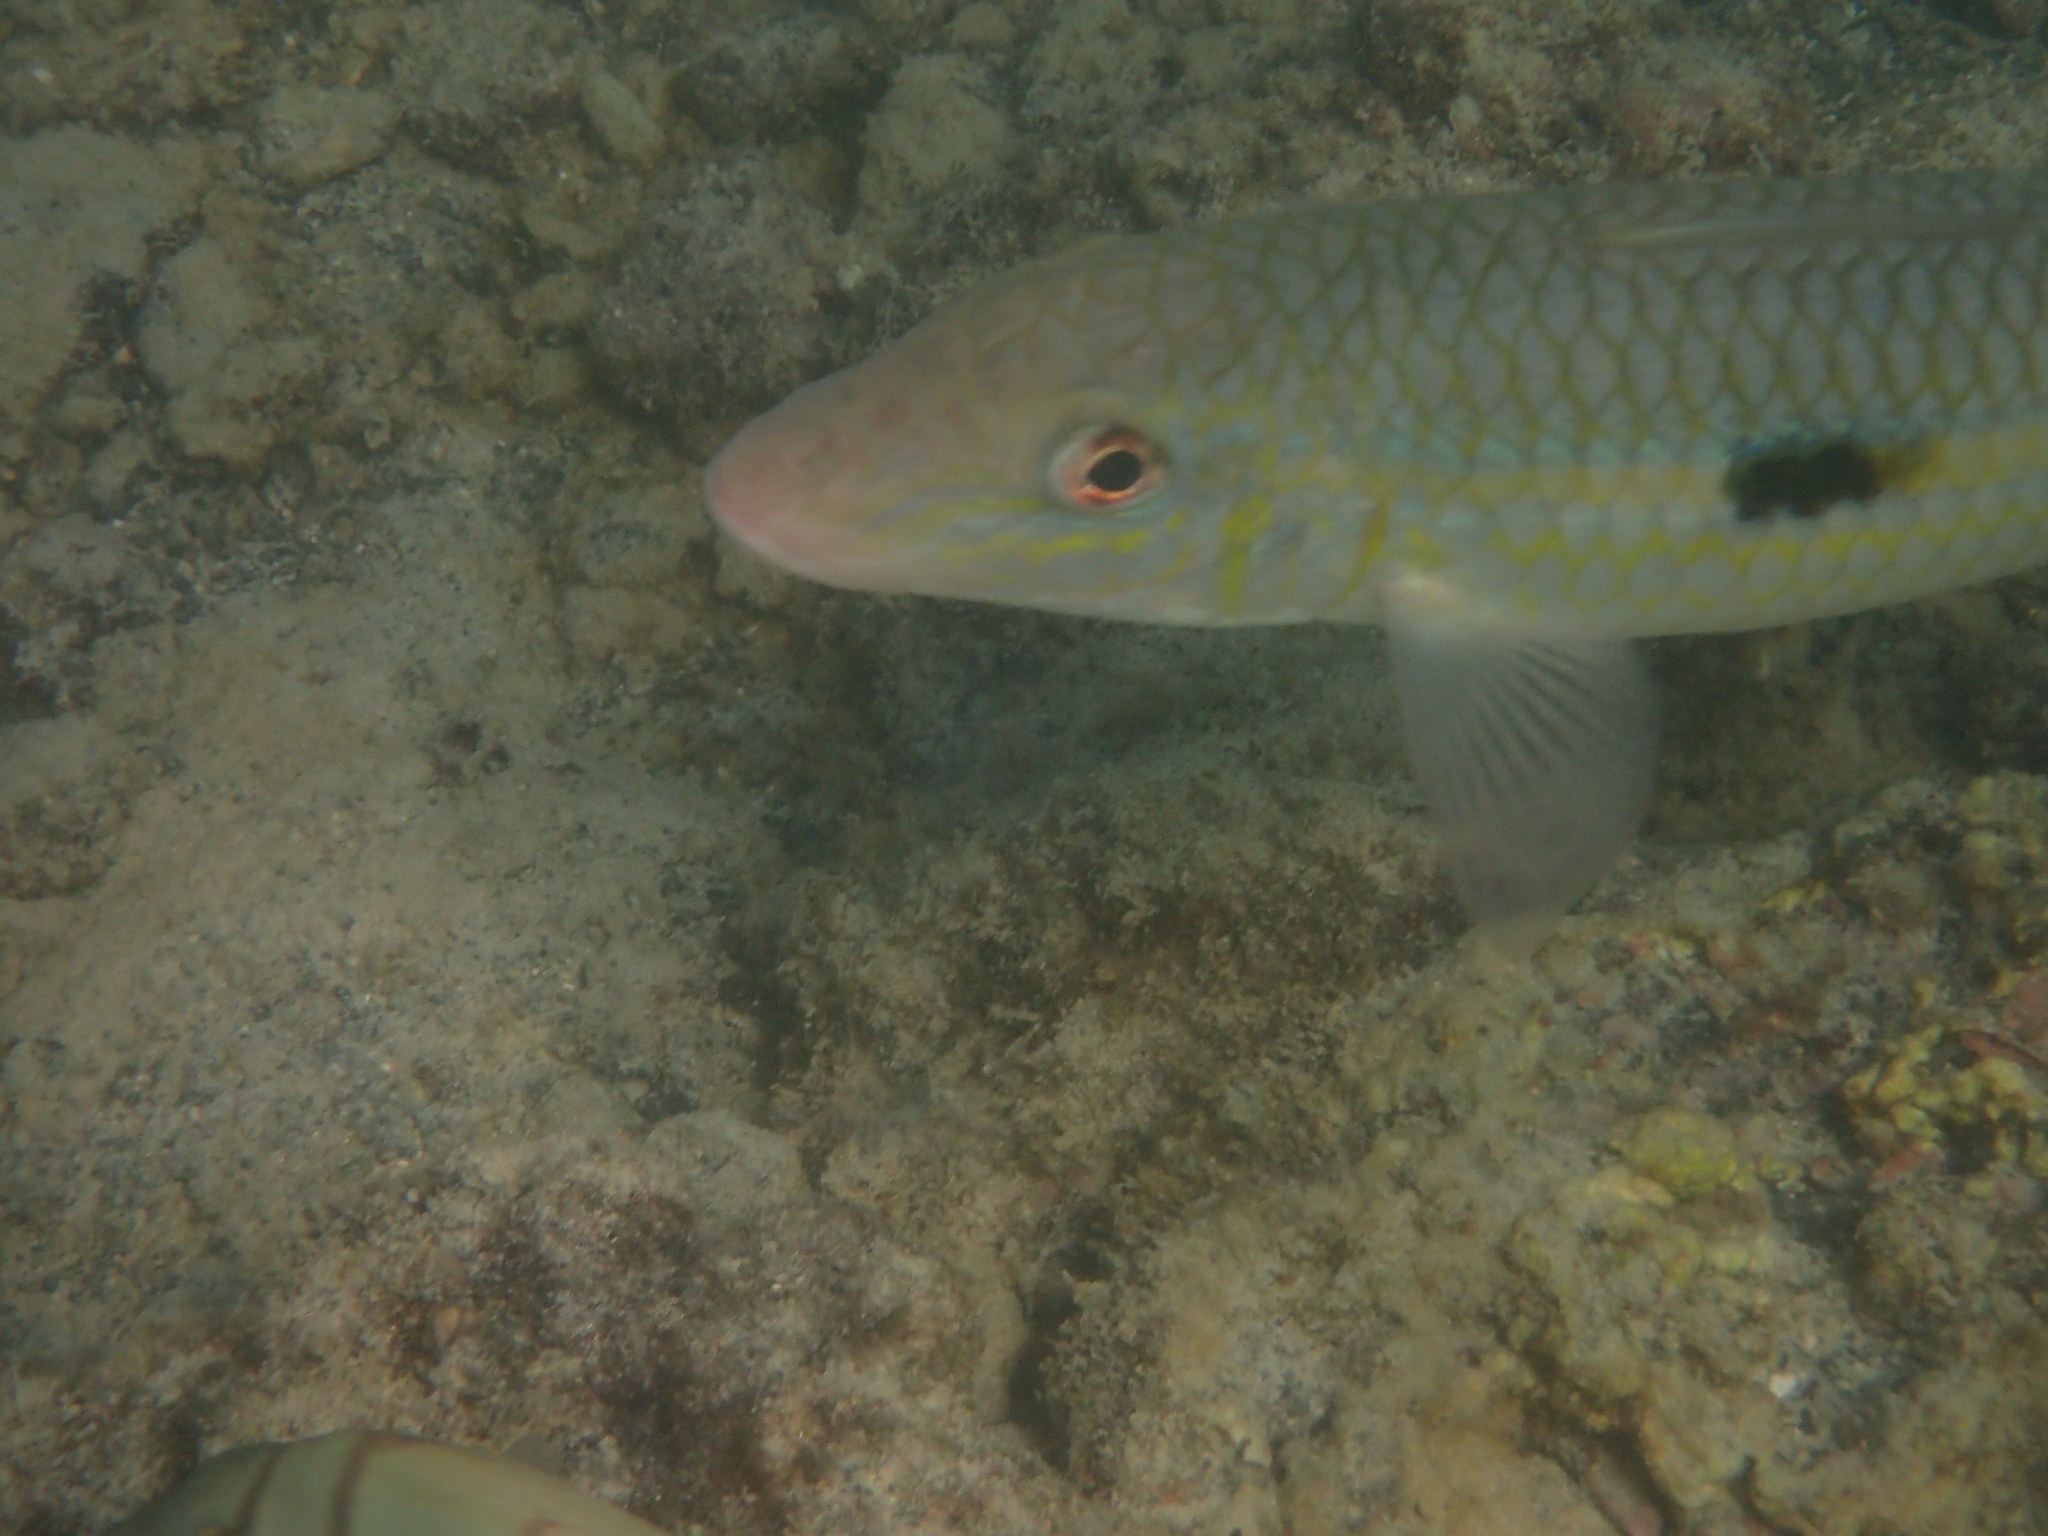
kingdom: Animalia
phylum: Chordata
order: Perciformes
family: Mullidae
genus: Mulloidichthys
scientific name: Mulloidichthys flavolineatus
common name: Yellowstripe goatfish
